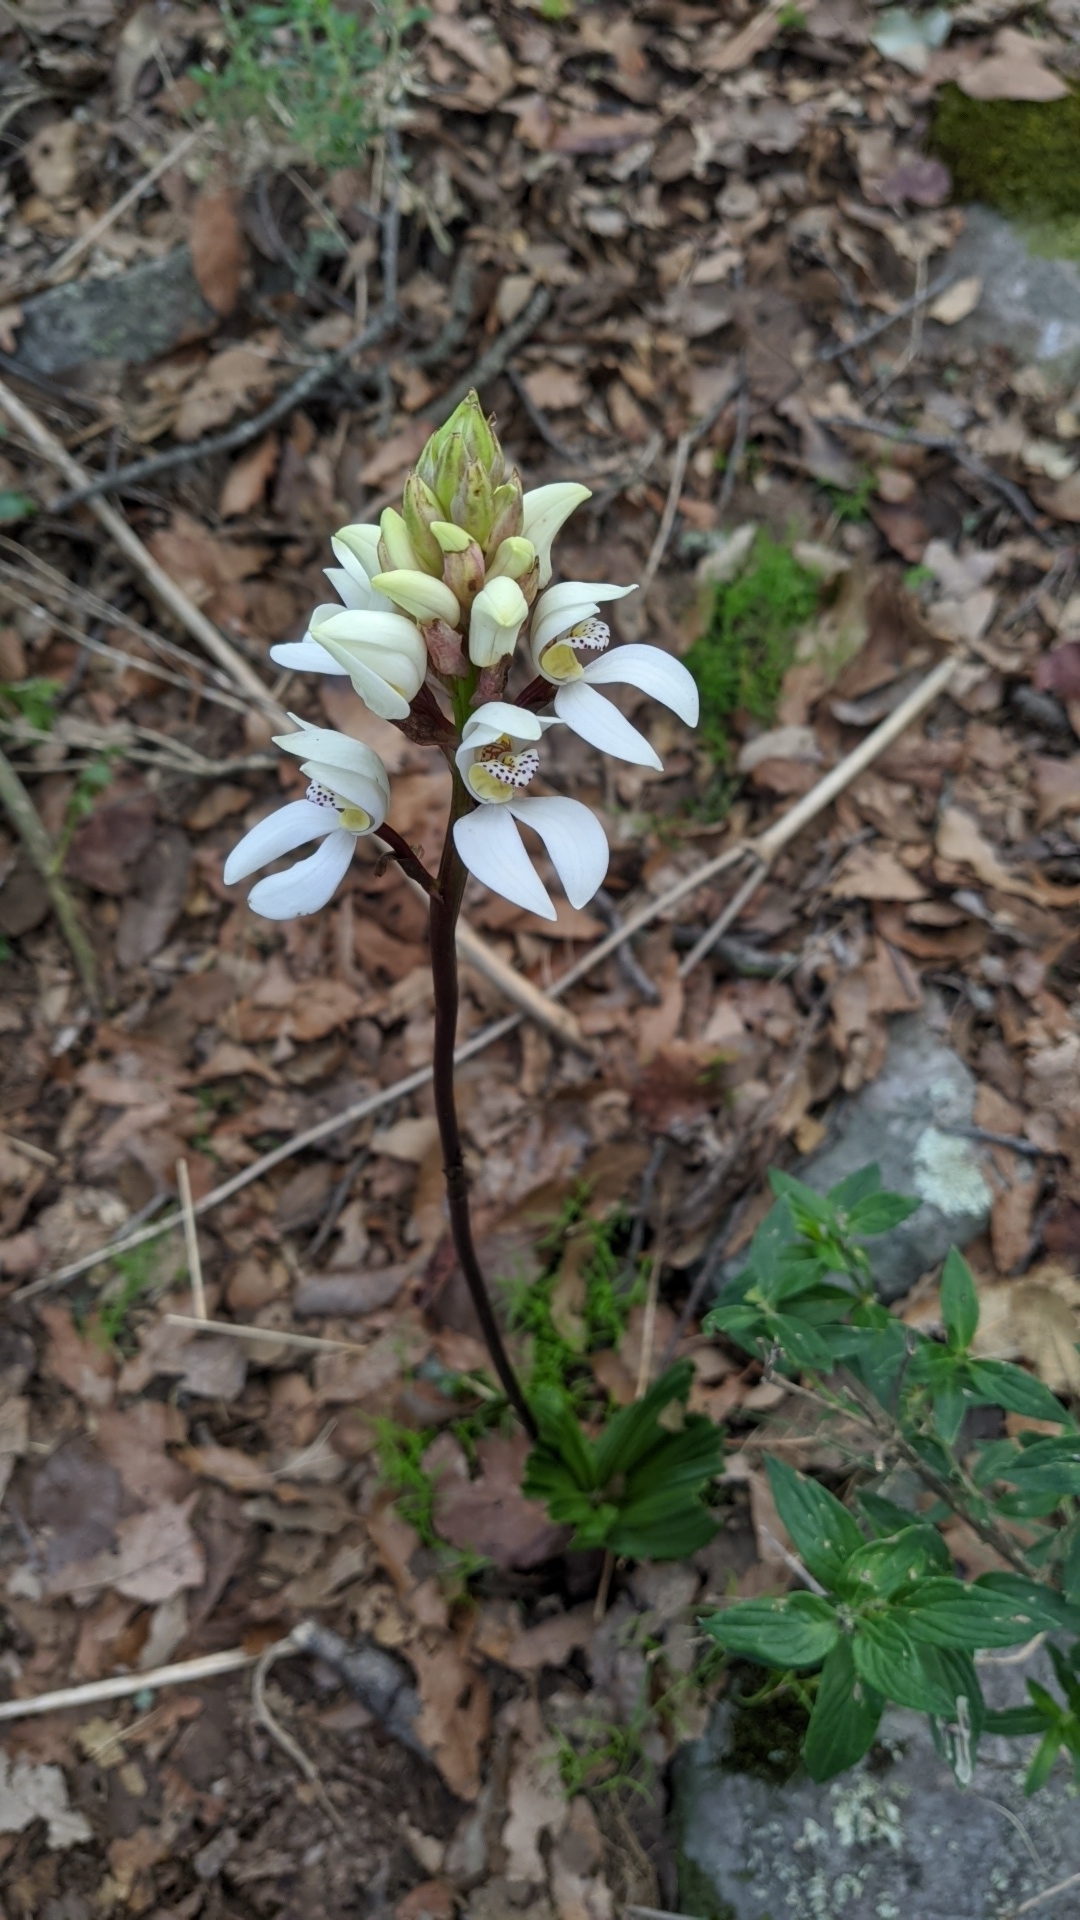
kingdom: Plantae
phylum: Tracheophyta
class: Liliopsida
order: Asparagales
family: Orchidaceae
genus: Govenia
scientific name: Govenia capitata
